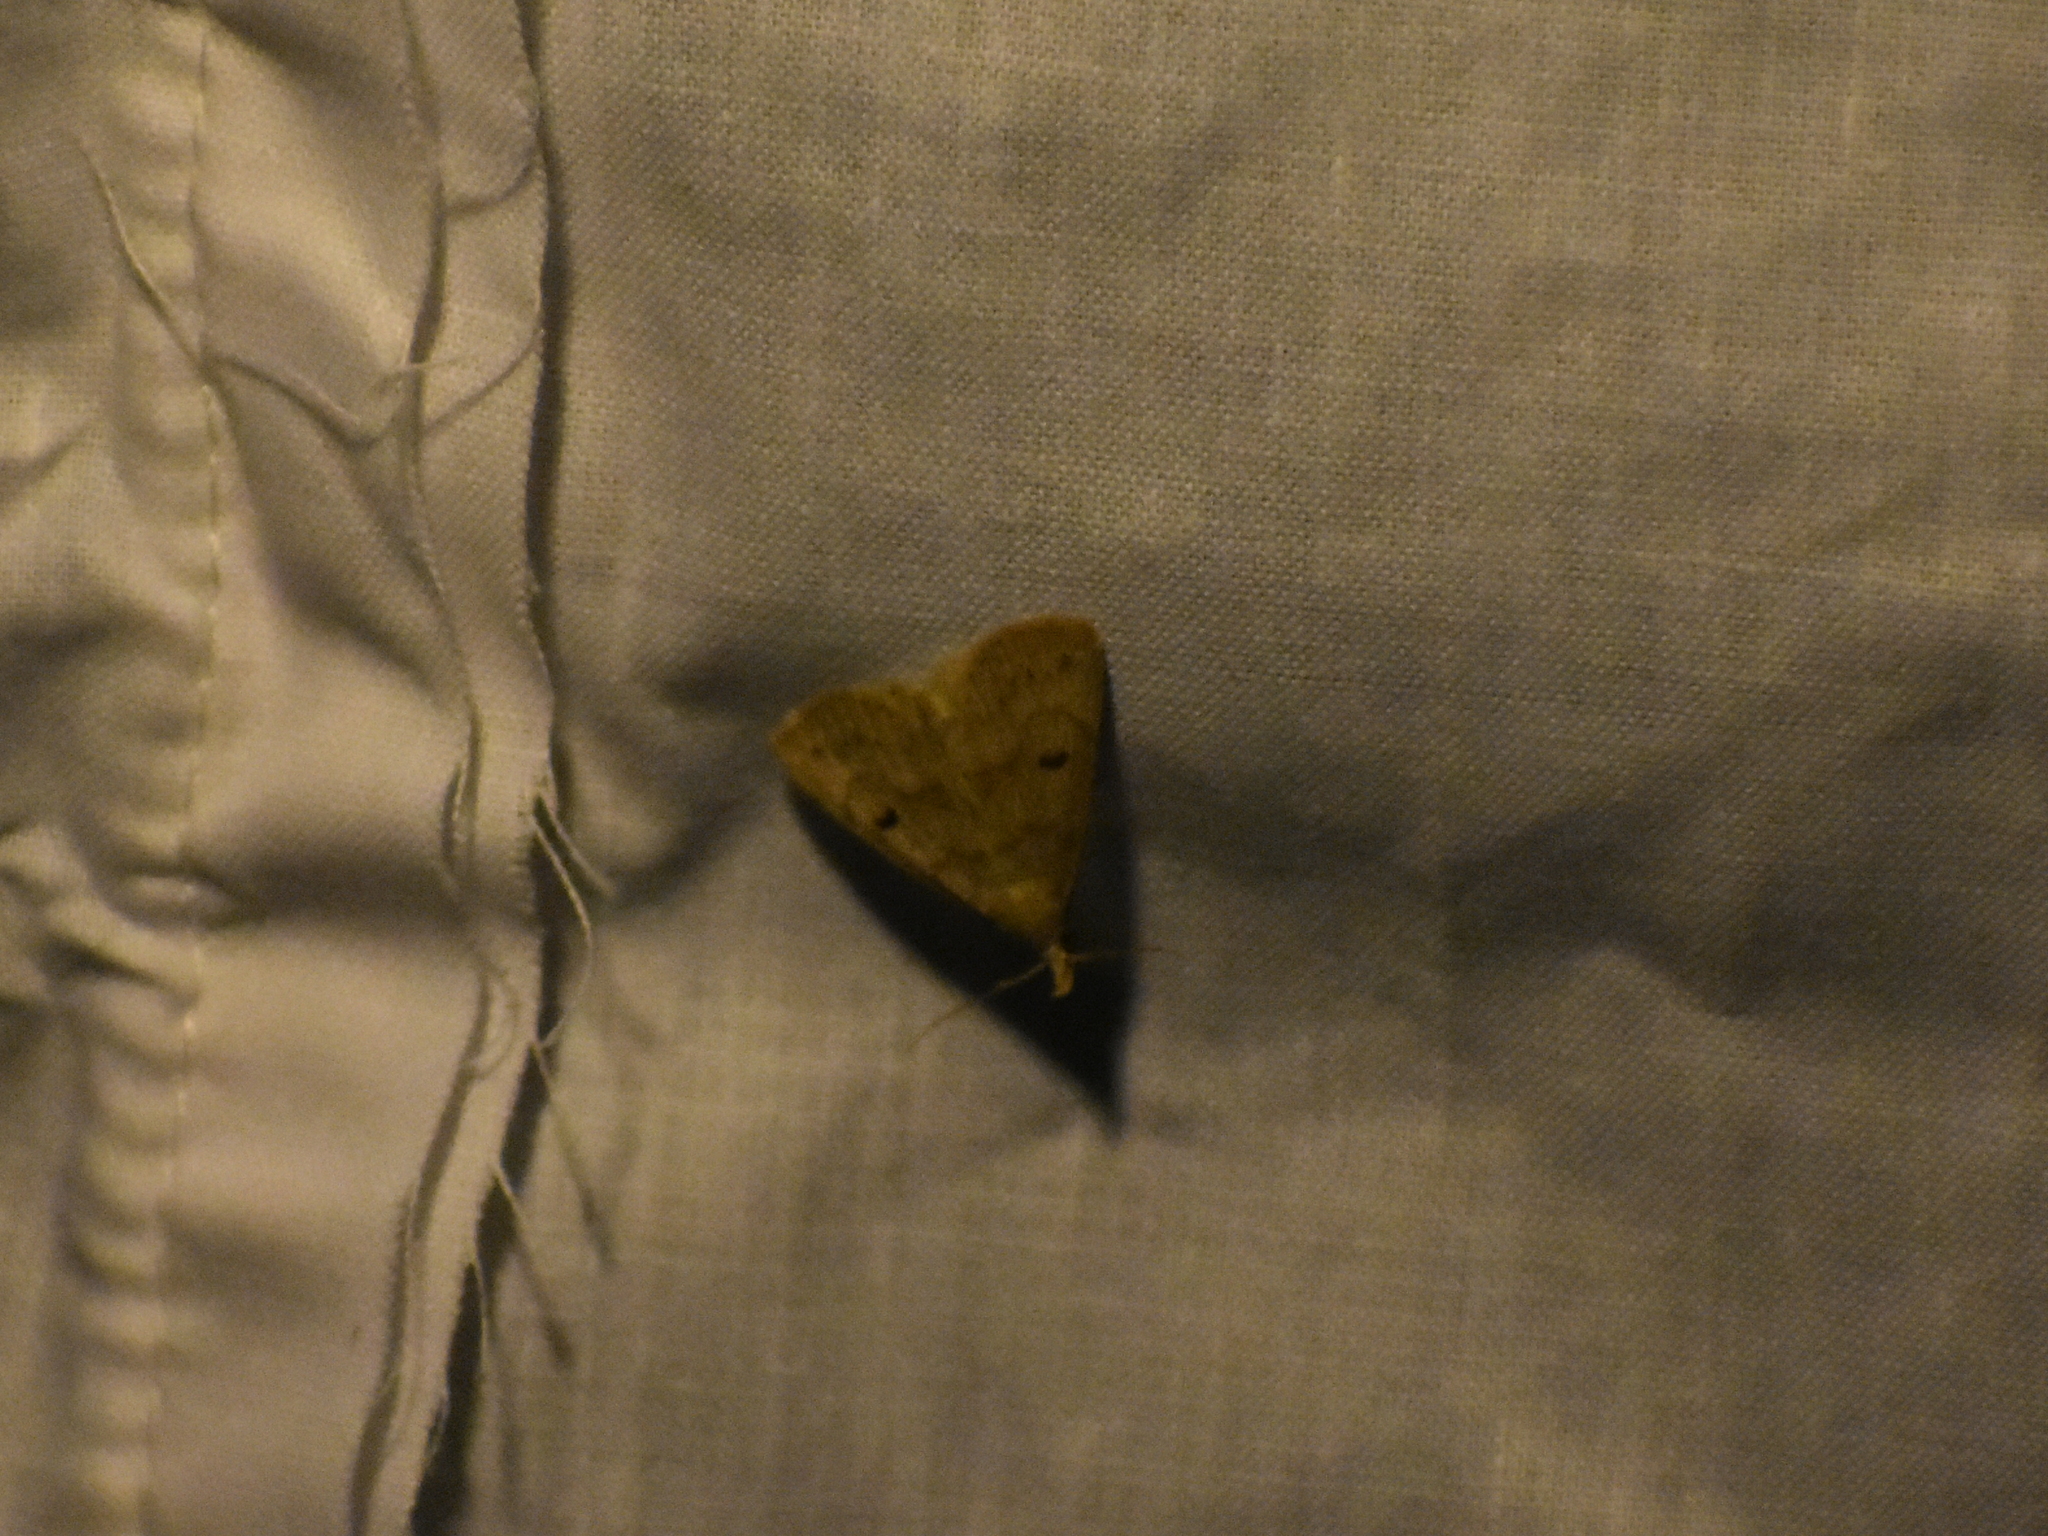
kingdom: Animalia
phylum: Arthropoda
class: Insecta
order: Lepidoptera
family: Erebidae
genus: Macrochilo
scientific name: Macrochilo morbidalis
